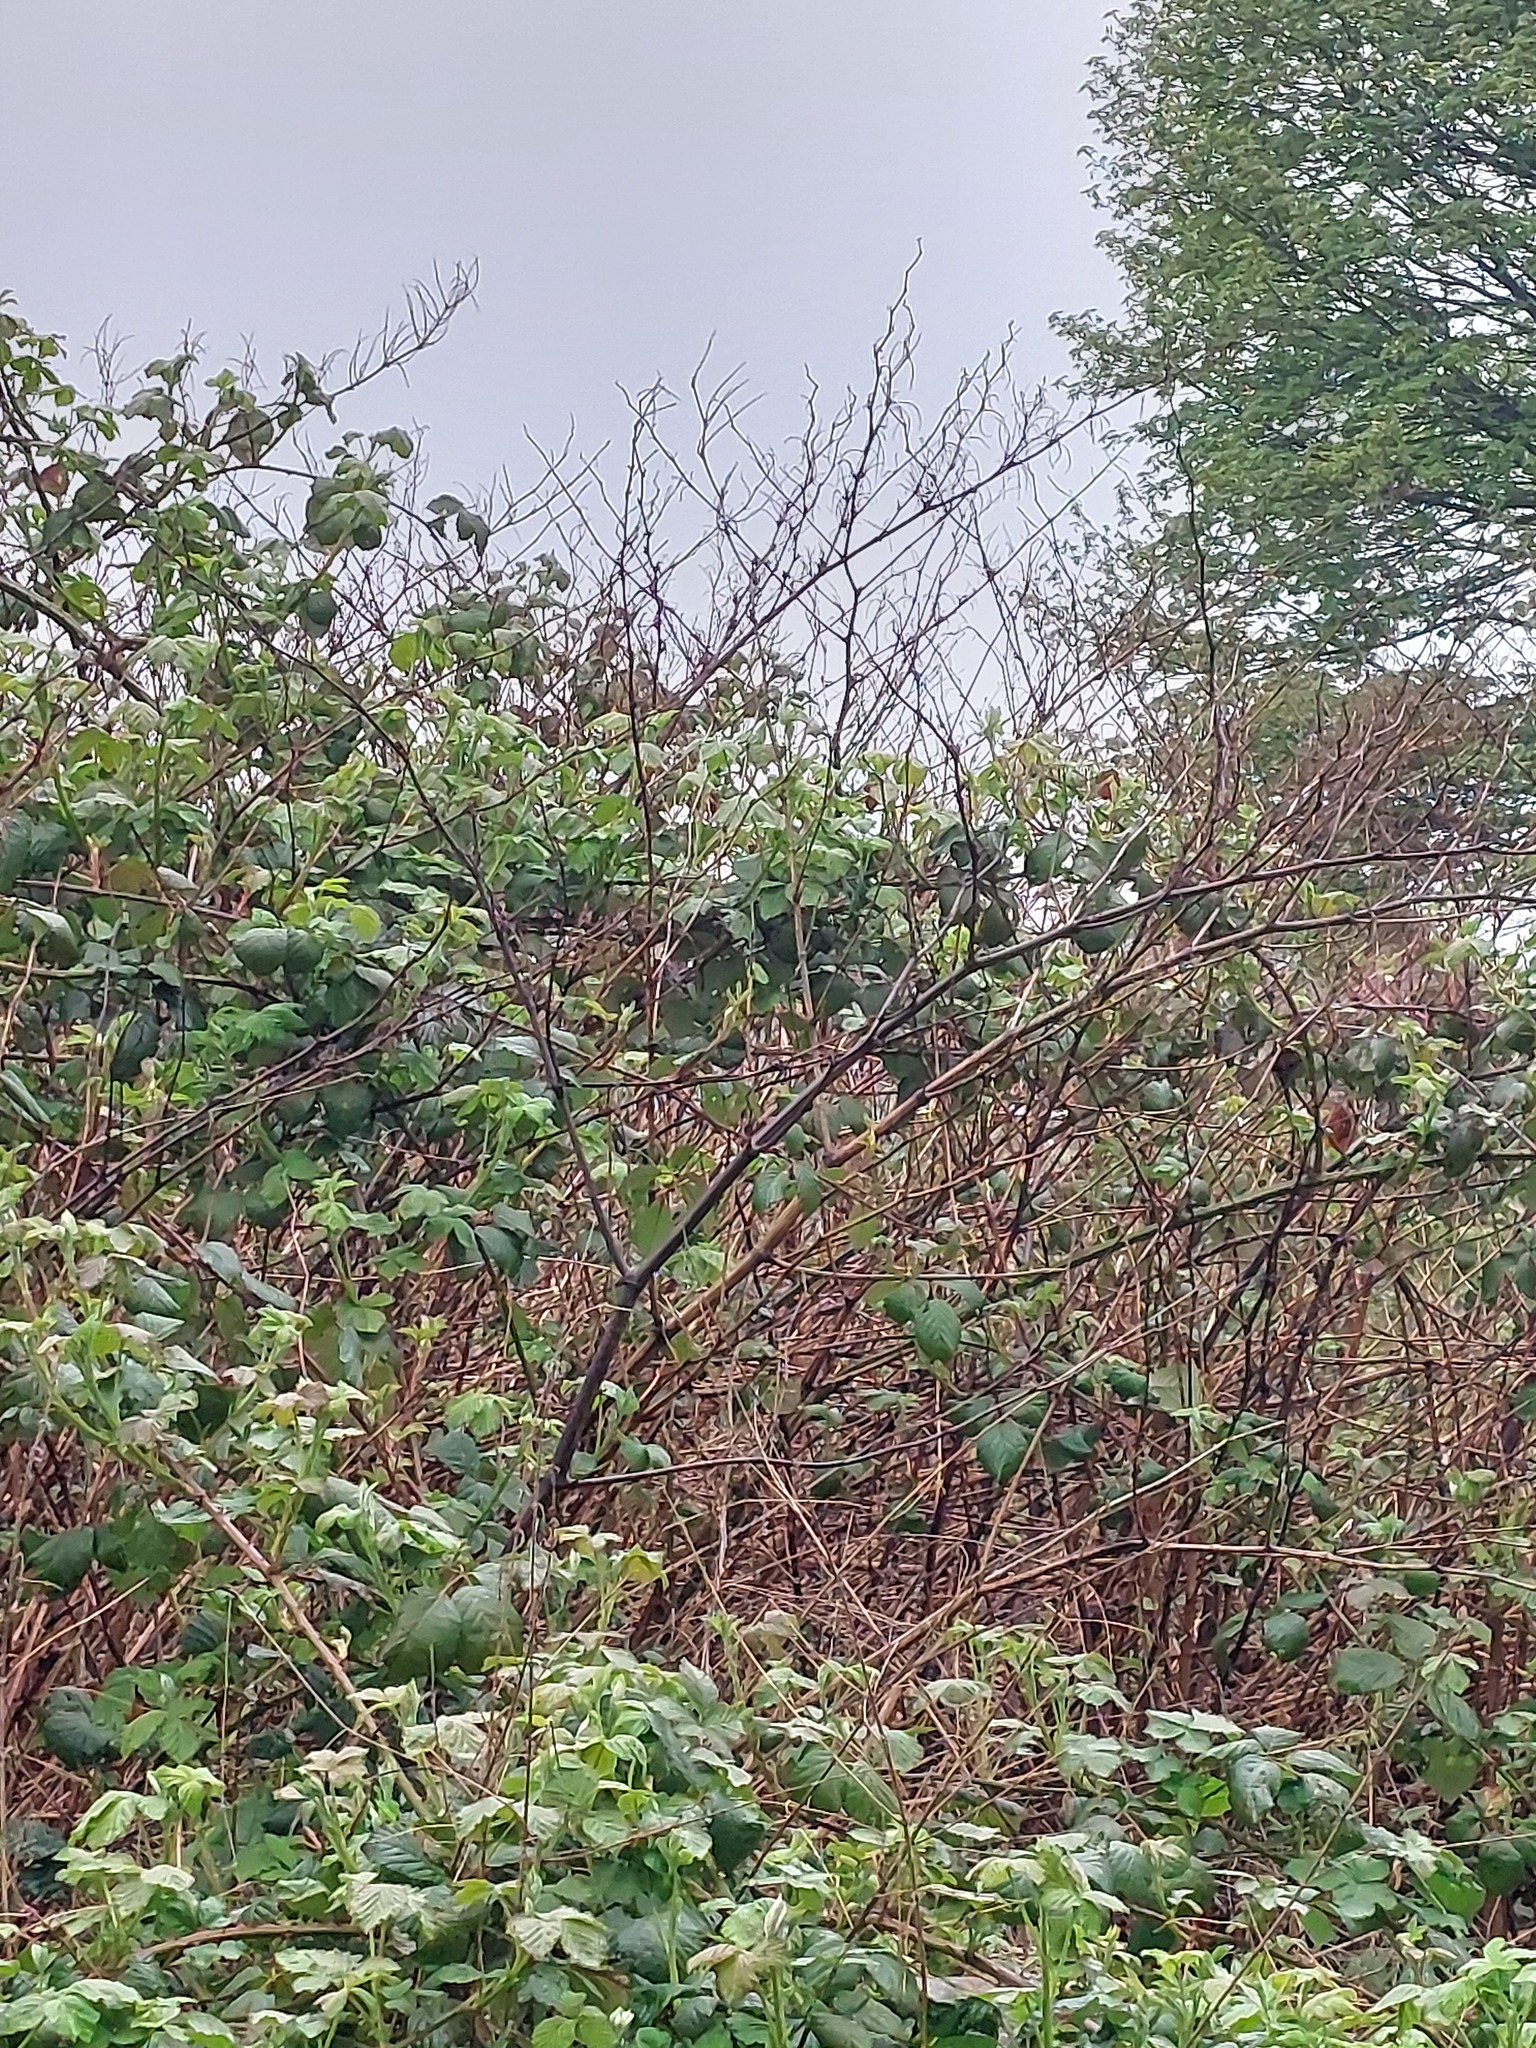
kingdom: Plantae
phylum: Tracheophyta
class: Magnoliopsida
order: Caryophyllales
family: Polygonaceae
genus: Reynoutria
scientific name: Reynoutria japonica
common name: Japanese knotweed
